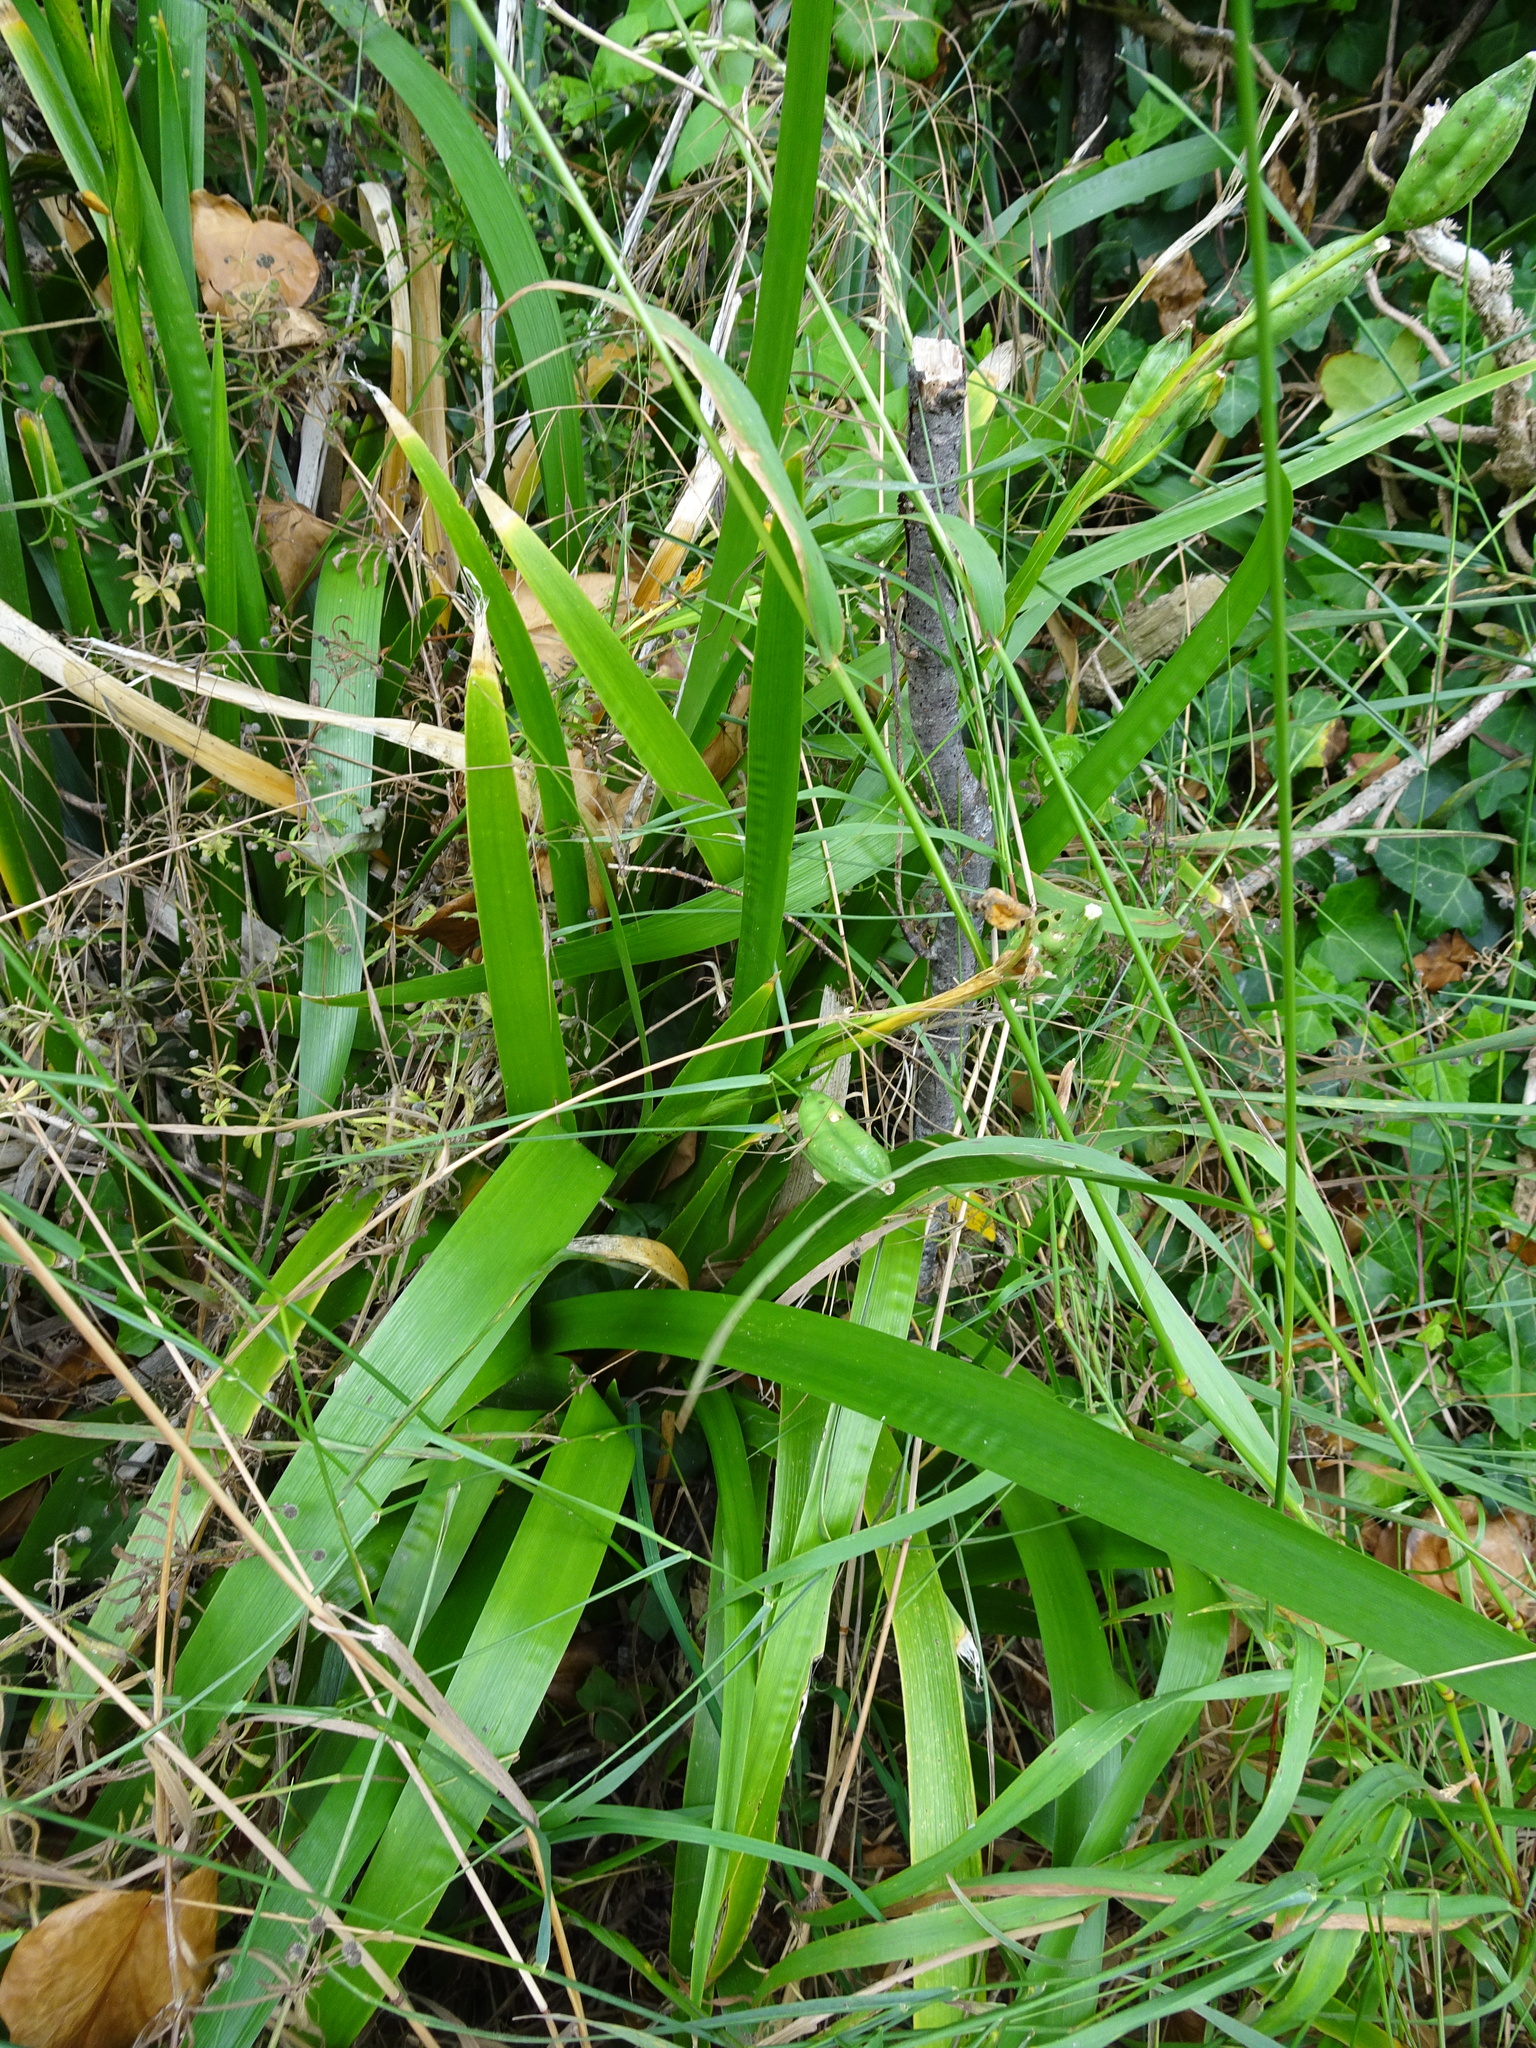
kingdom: Plantae
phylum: Tracheophyta
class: Liliopsida
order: Asparagales
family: Iridaceae
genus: Iris
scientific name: Iris foetidissima
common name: Stinking iris
